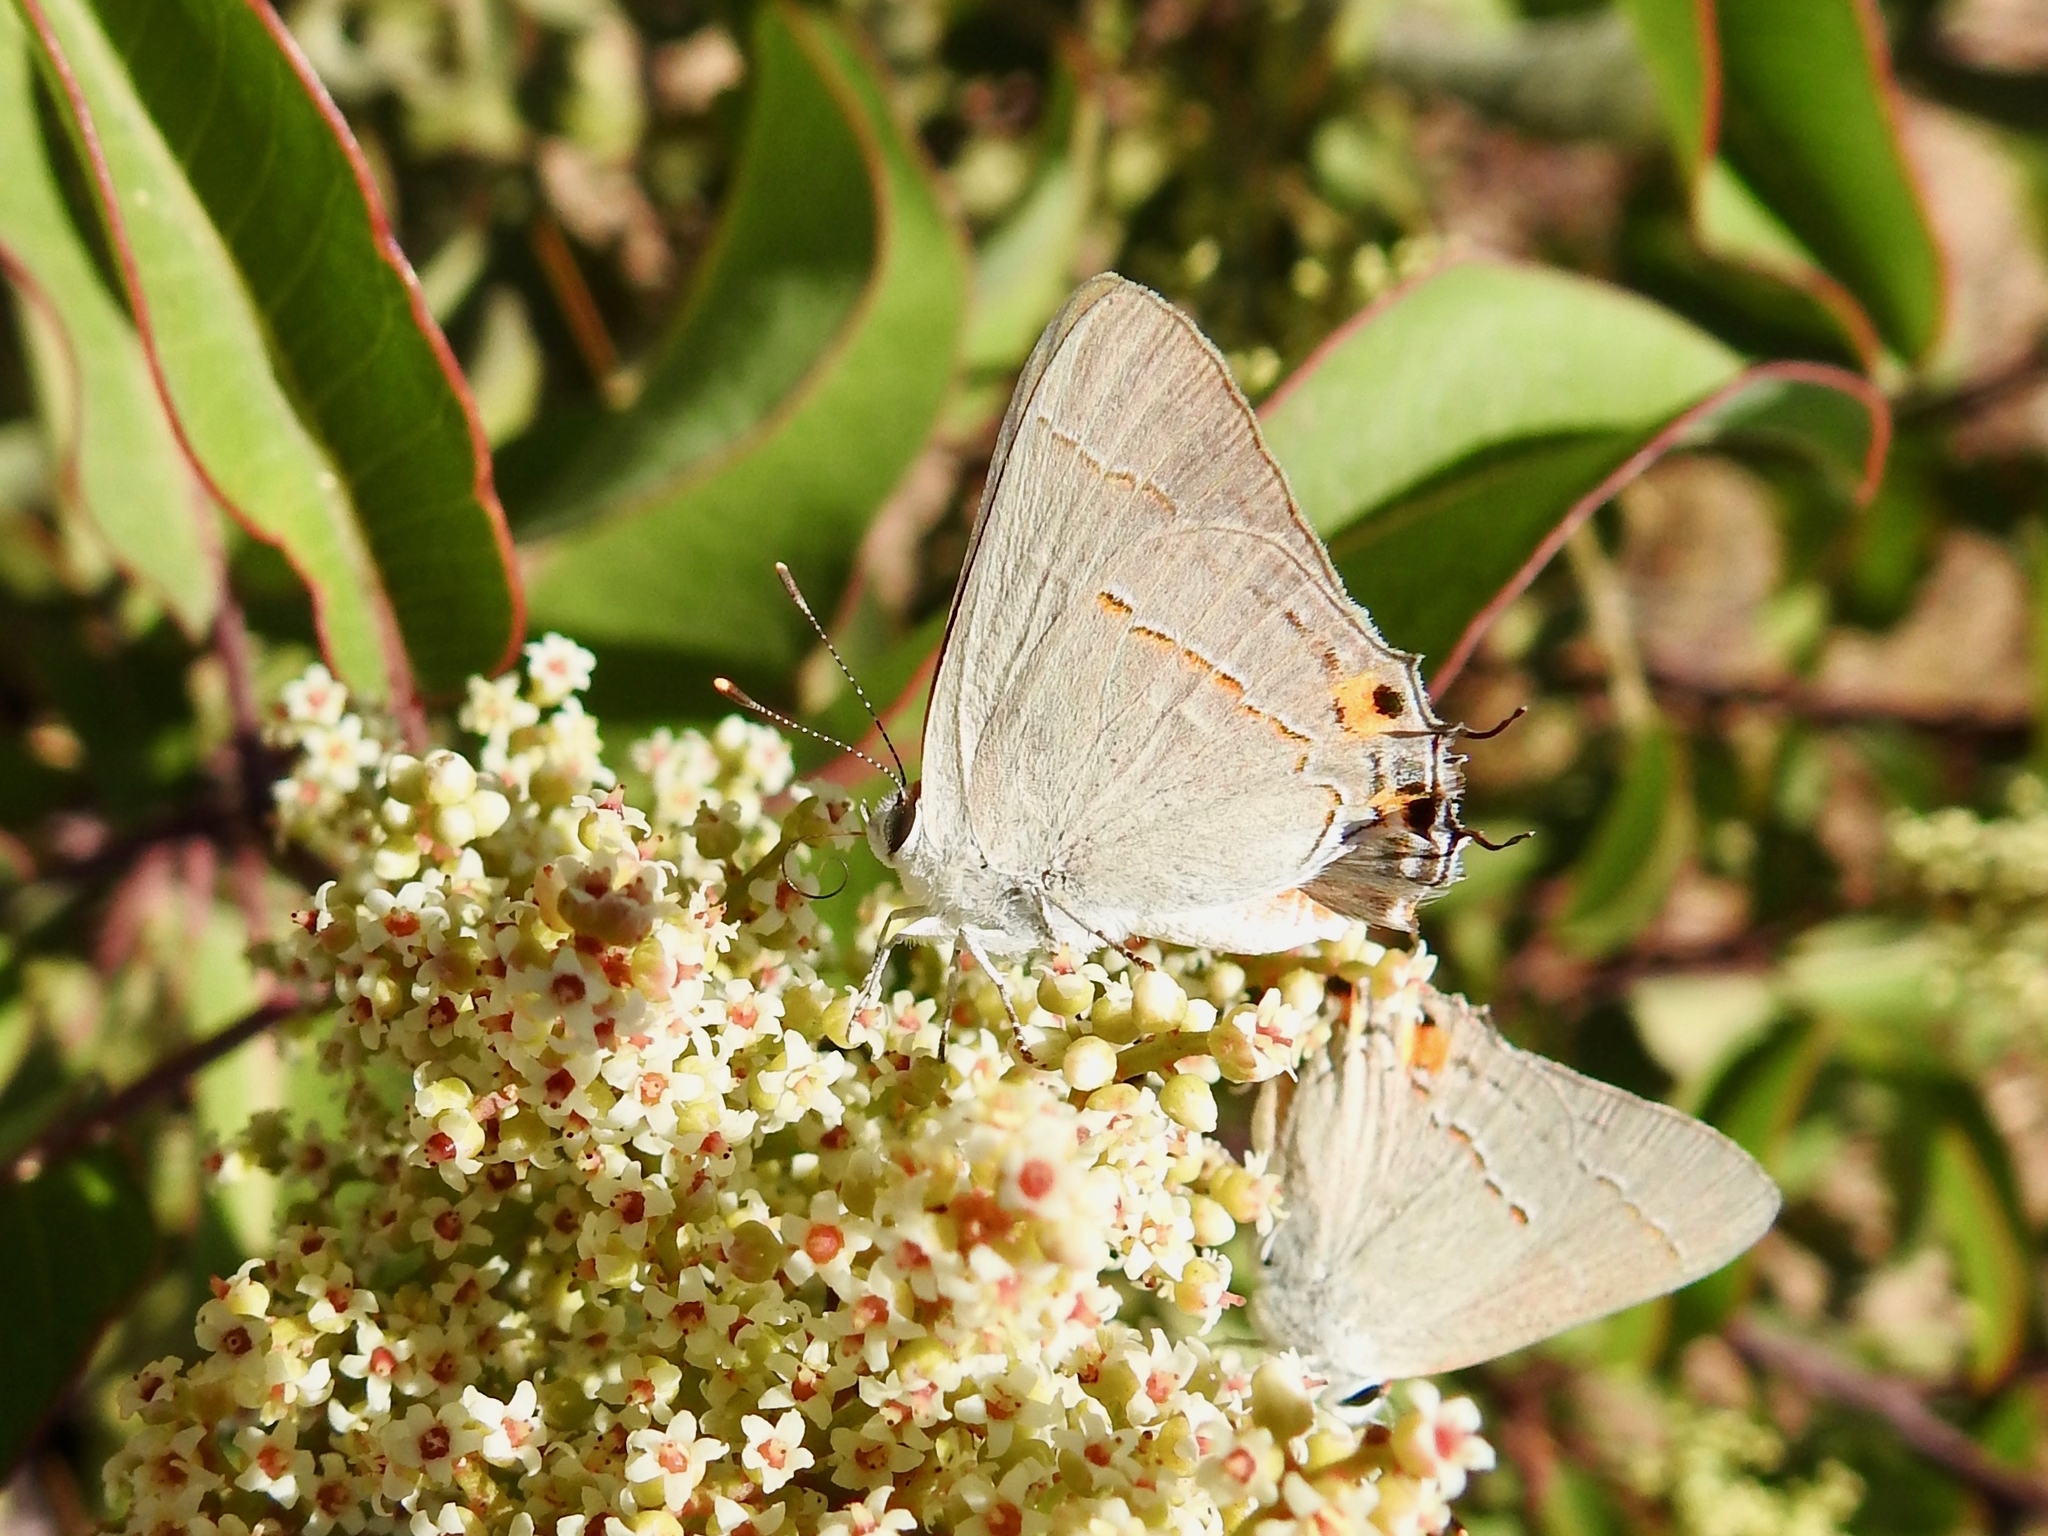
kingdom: Animalia
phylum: Arthropoda
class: Insecta
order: Lepidoptera
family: Lycaenidae
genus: Strymon
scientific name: Strymon melinus
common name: Gray hairstreak
